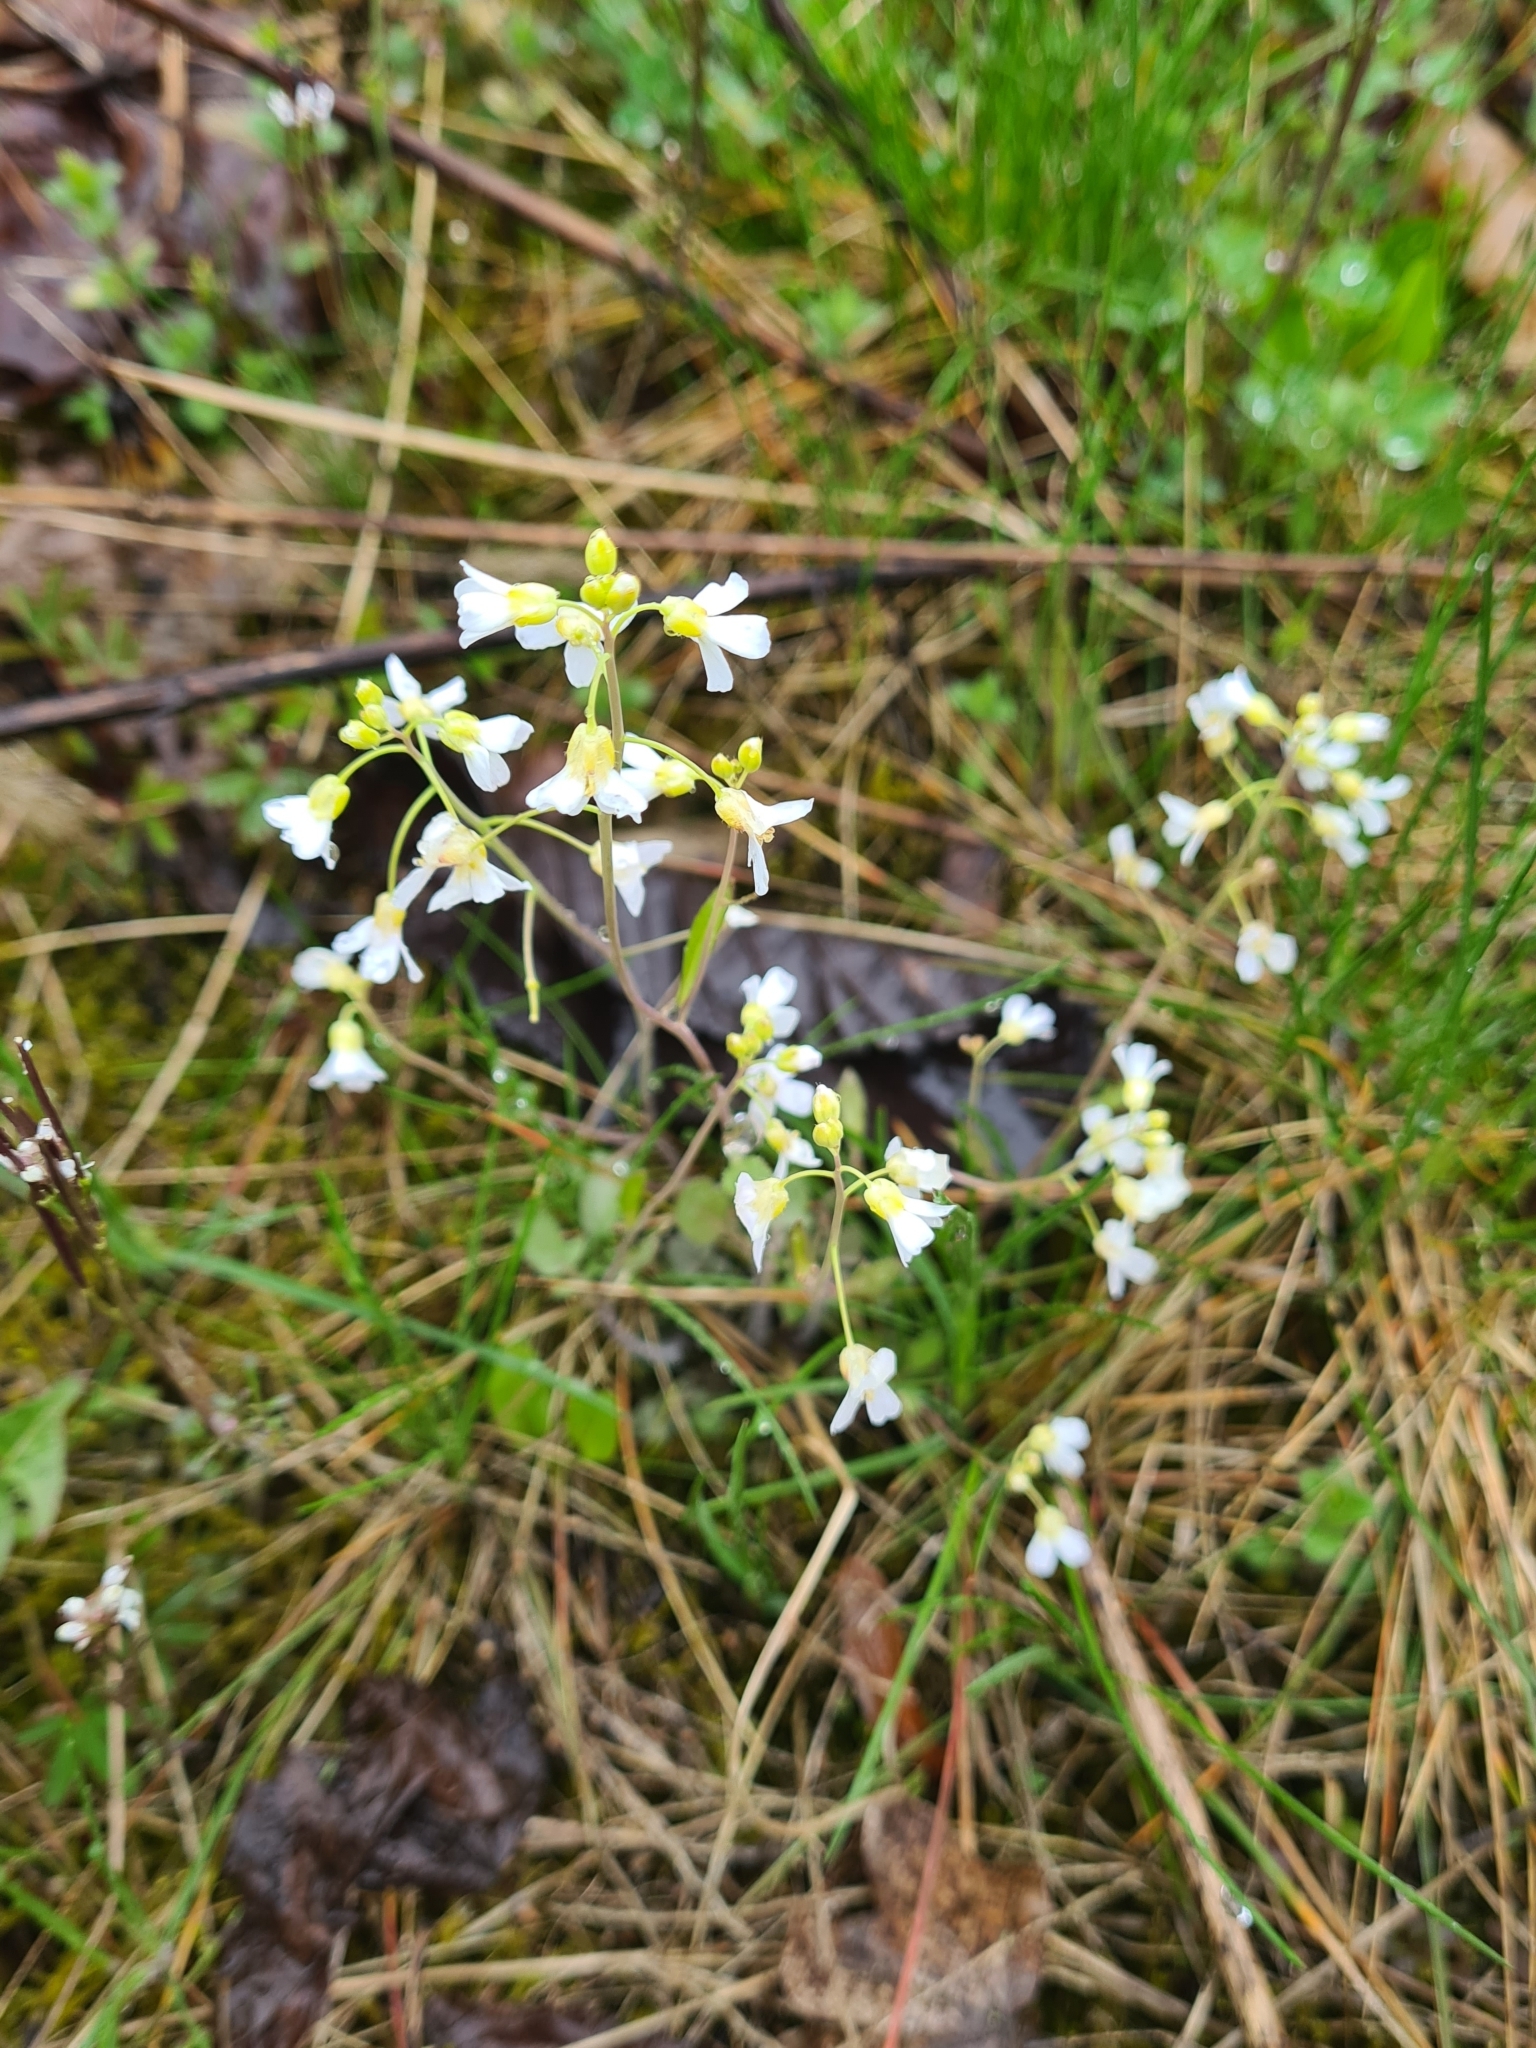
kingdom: Plantae
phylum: Tracheophyta
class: Magnoliopsida
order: Brassicales
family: Brassicaceae
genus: Cardamine
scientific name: Cardamine pratensis
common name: Cuckoo flower
